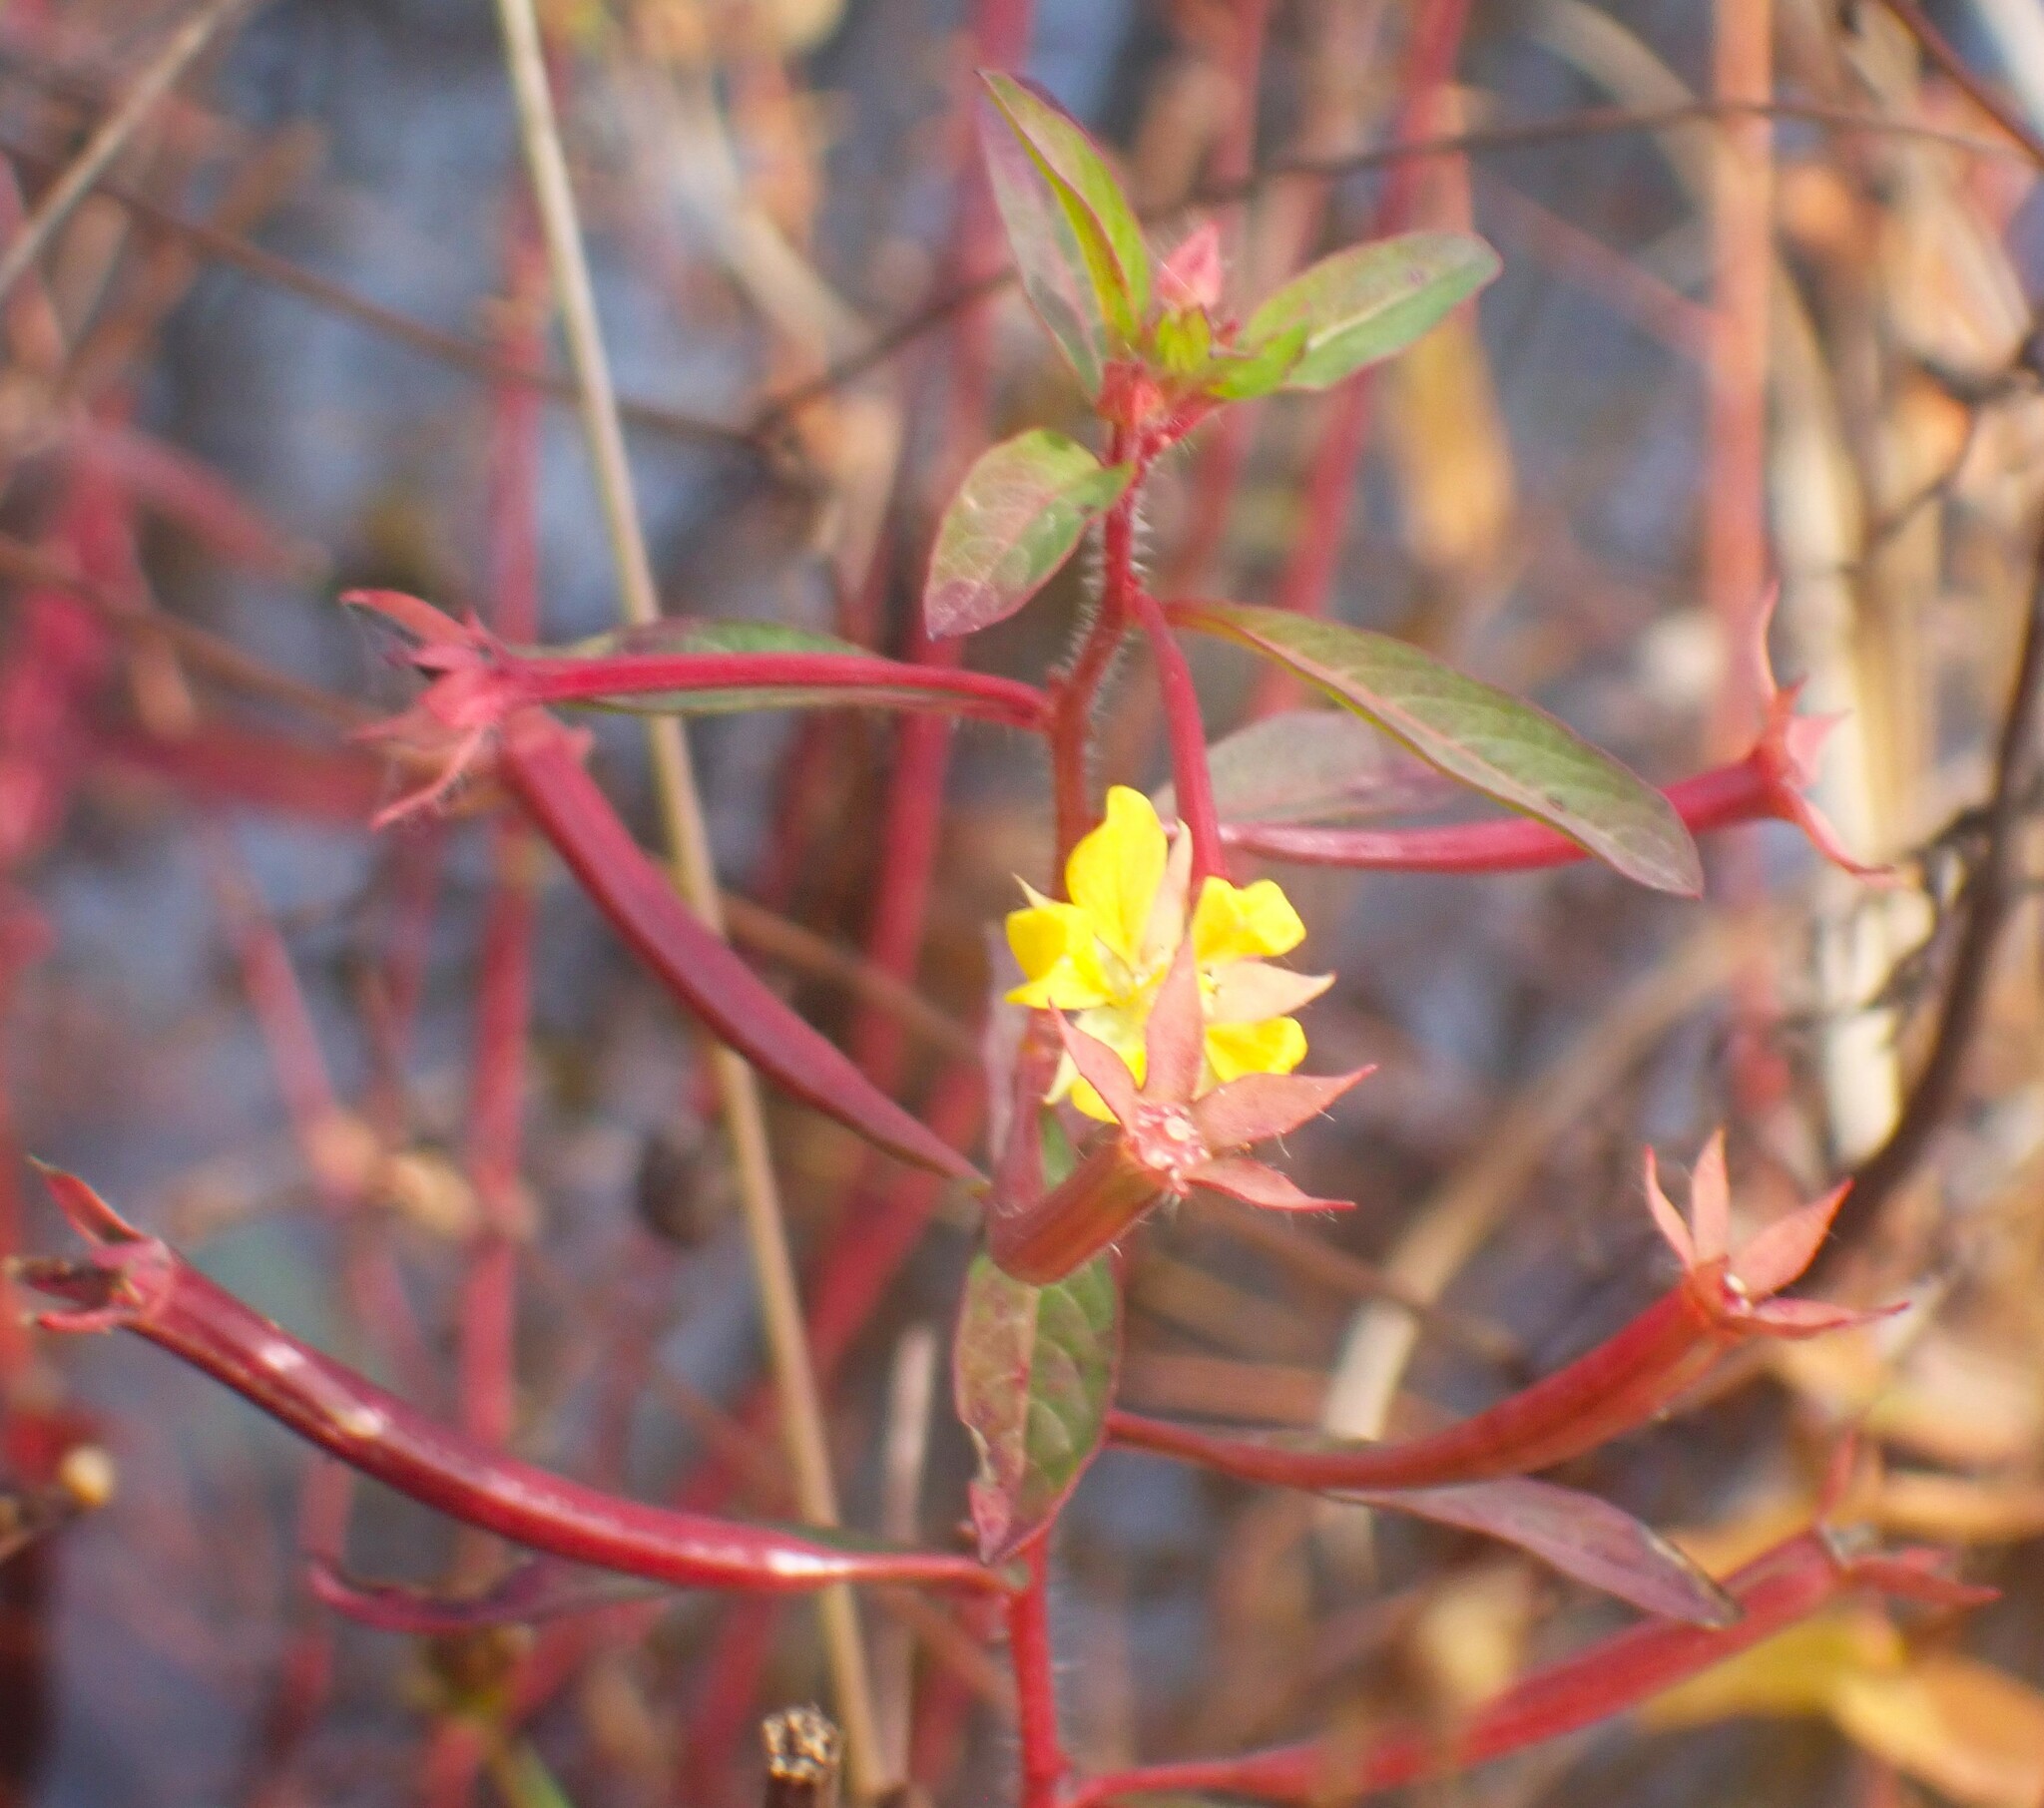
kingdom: Plantae
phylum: Tracheophyta
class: Magnoliopsida
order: Myrtales
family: Onagraceae
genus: Ludwigia
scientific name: Ludwigia leptocarpa
